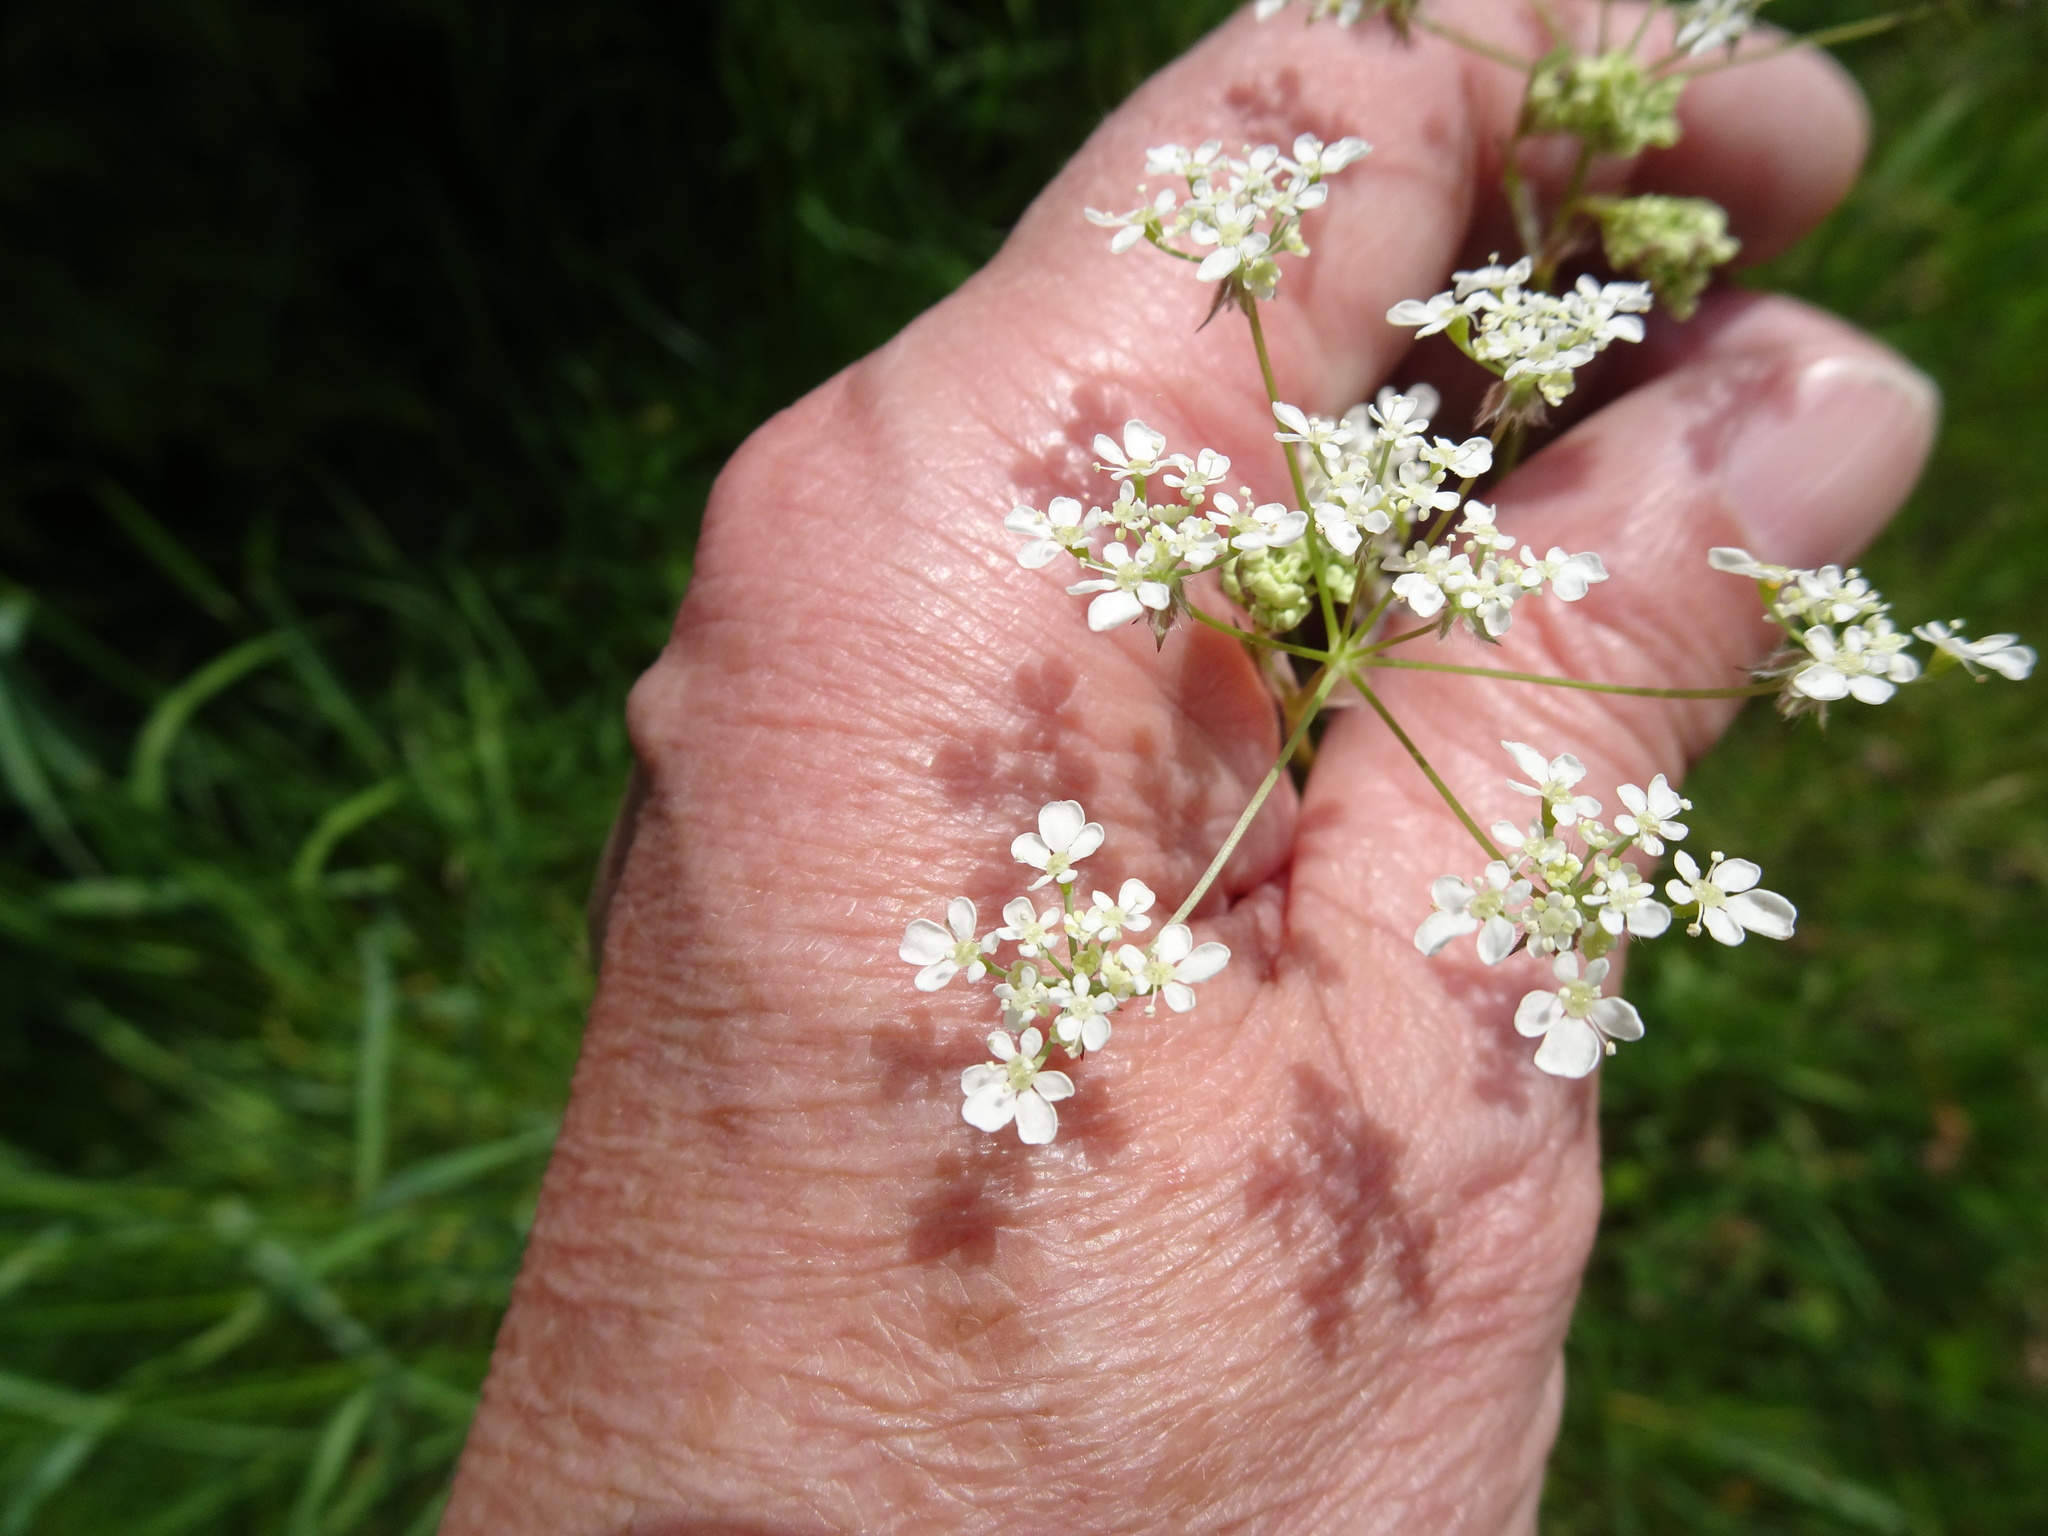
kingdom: Plantae
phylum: Tracheophyta
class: Magnoliopsida
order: Apiales
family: Apiaceae
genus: Anthriscus
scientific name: Anthriscus sylvestris
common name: Cow parsley
